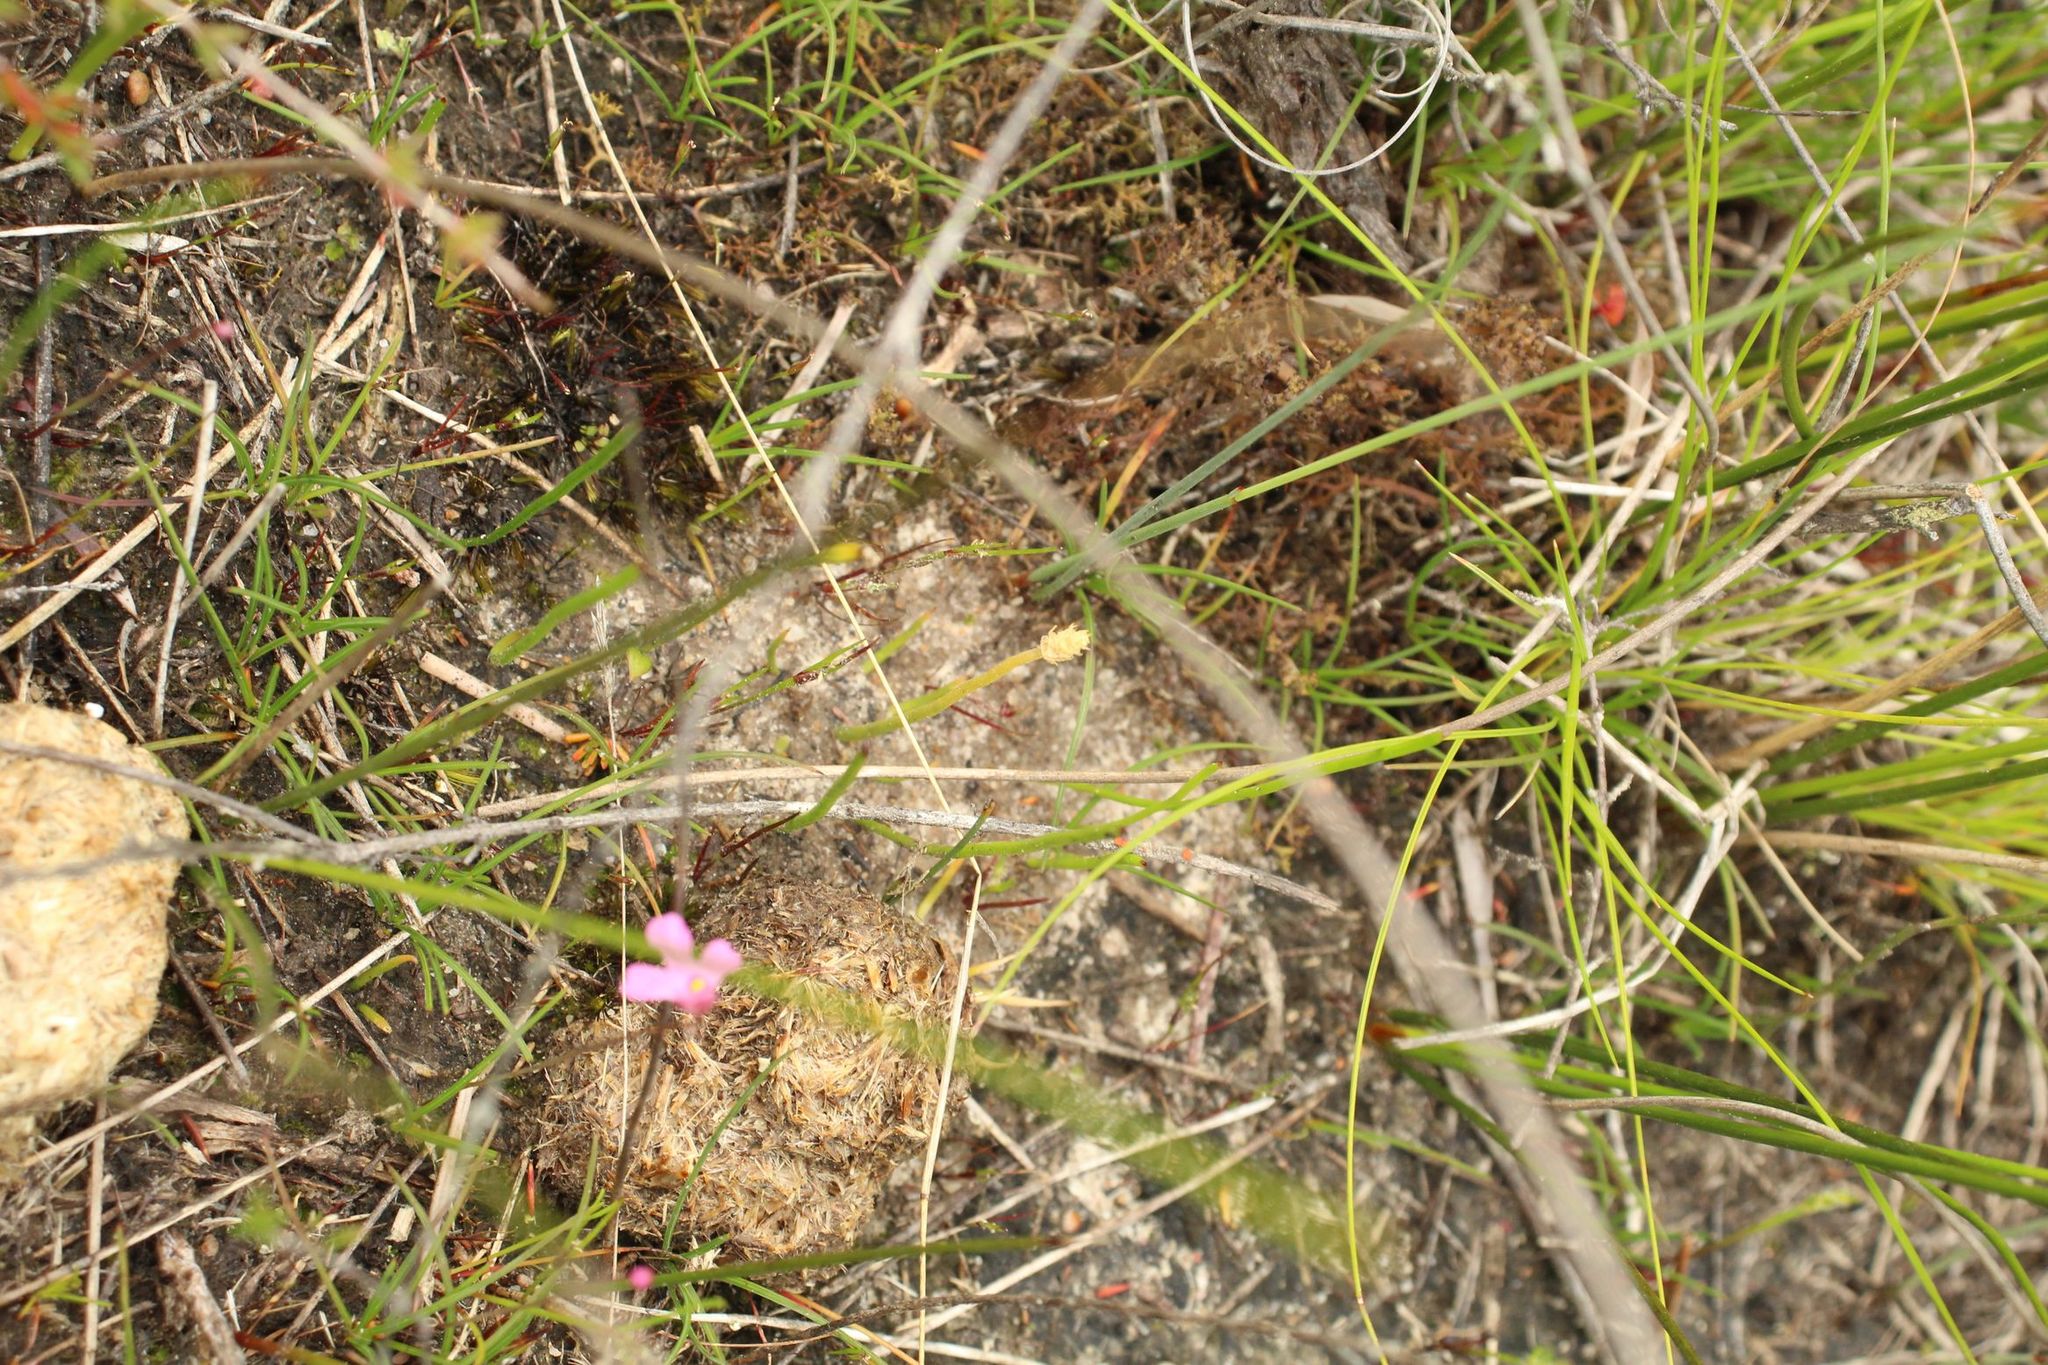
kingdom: Plantae
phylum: Tracheophyta
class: Lycopodiopsida
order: Lycopodiales
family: Lycopodiaceae
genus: Phylloglossum
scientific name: Phylloglossum drummondii
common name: Pigmy-club-moss
